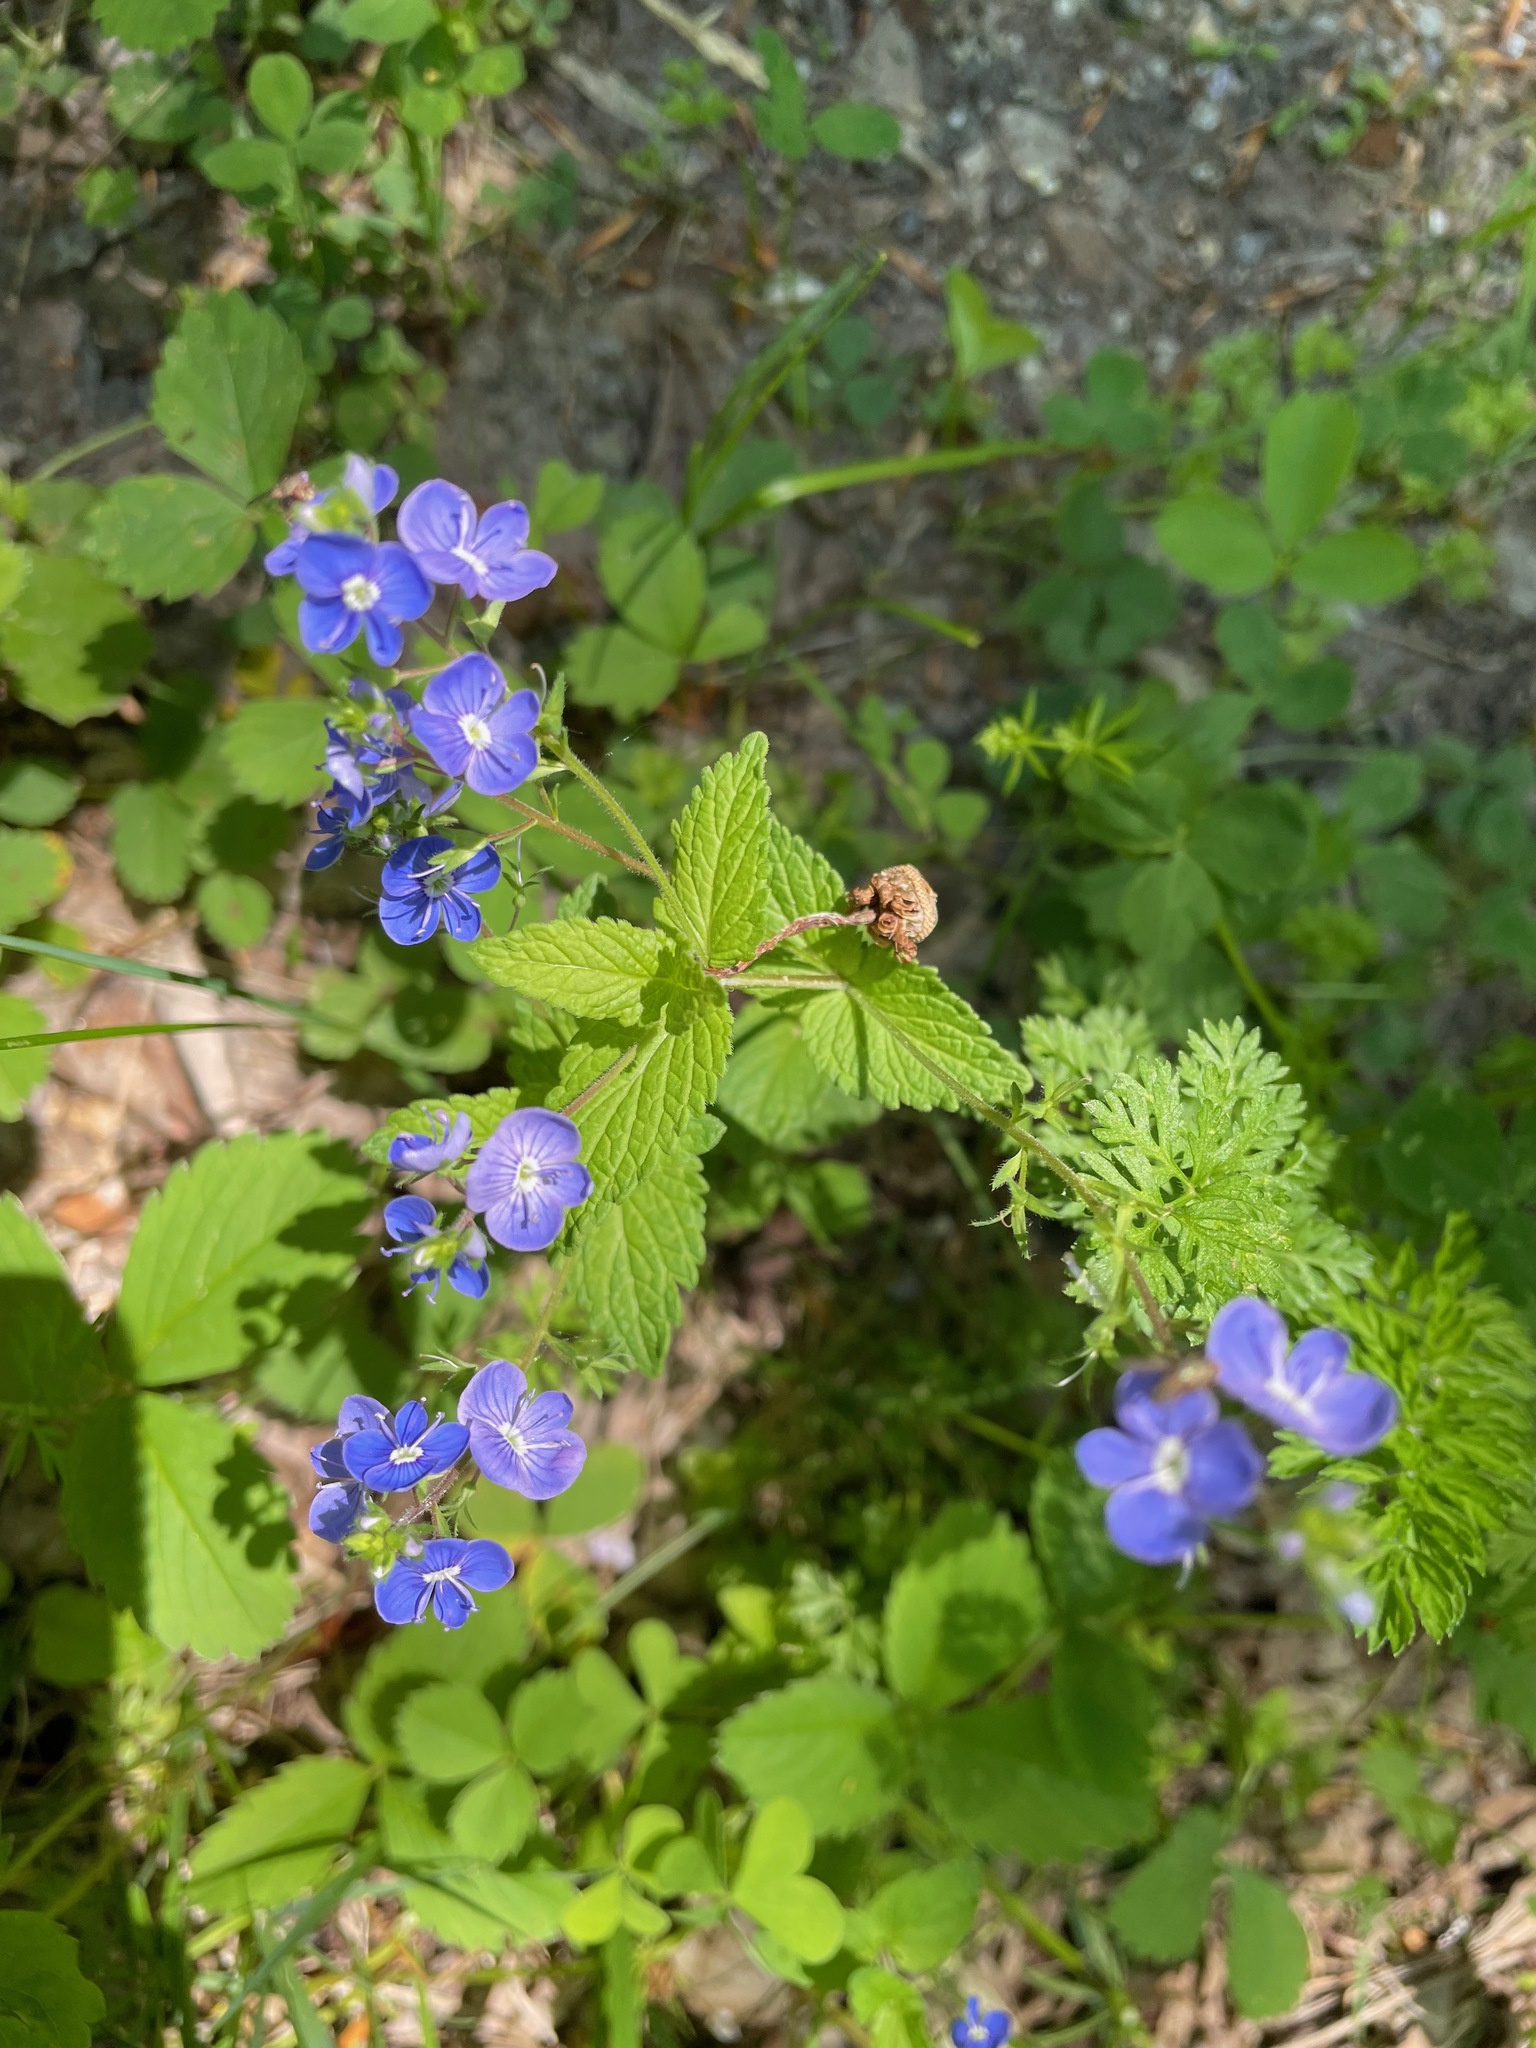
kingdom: Plantae
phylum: Tracheophyta
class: Magnoliopsida
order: Lamiales
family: Plantaginaceae
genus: Veronica
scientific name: Veronica chamaedrys
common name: Germander speedwell
